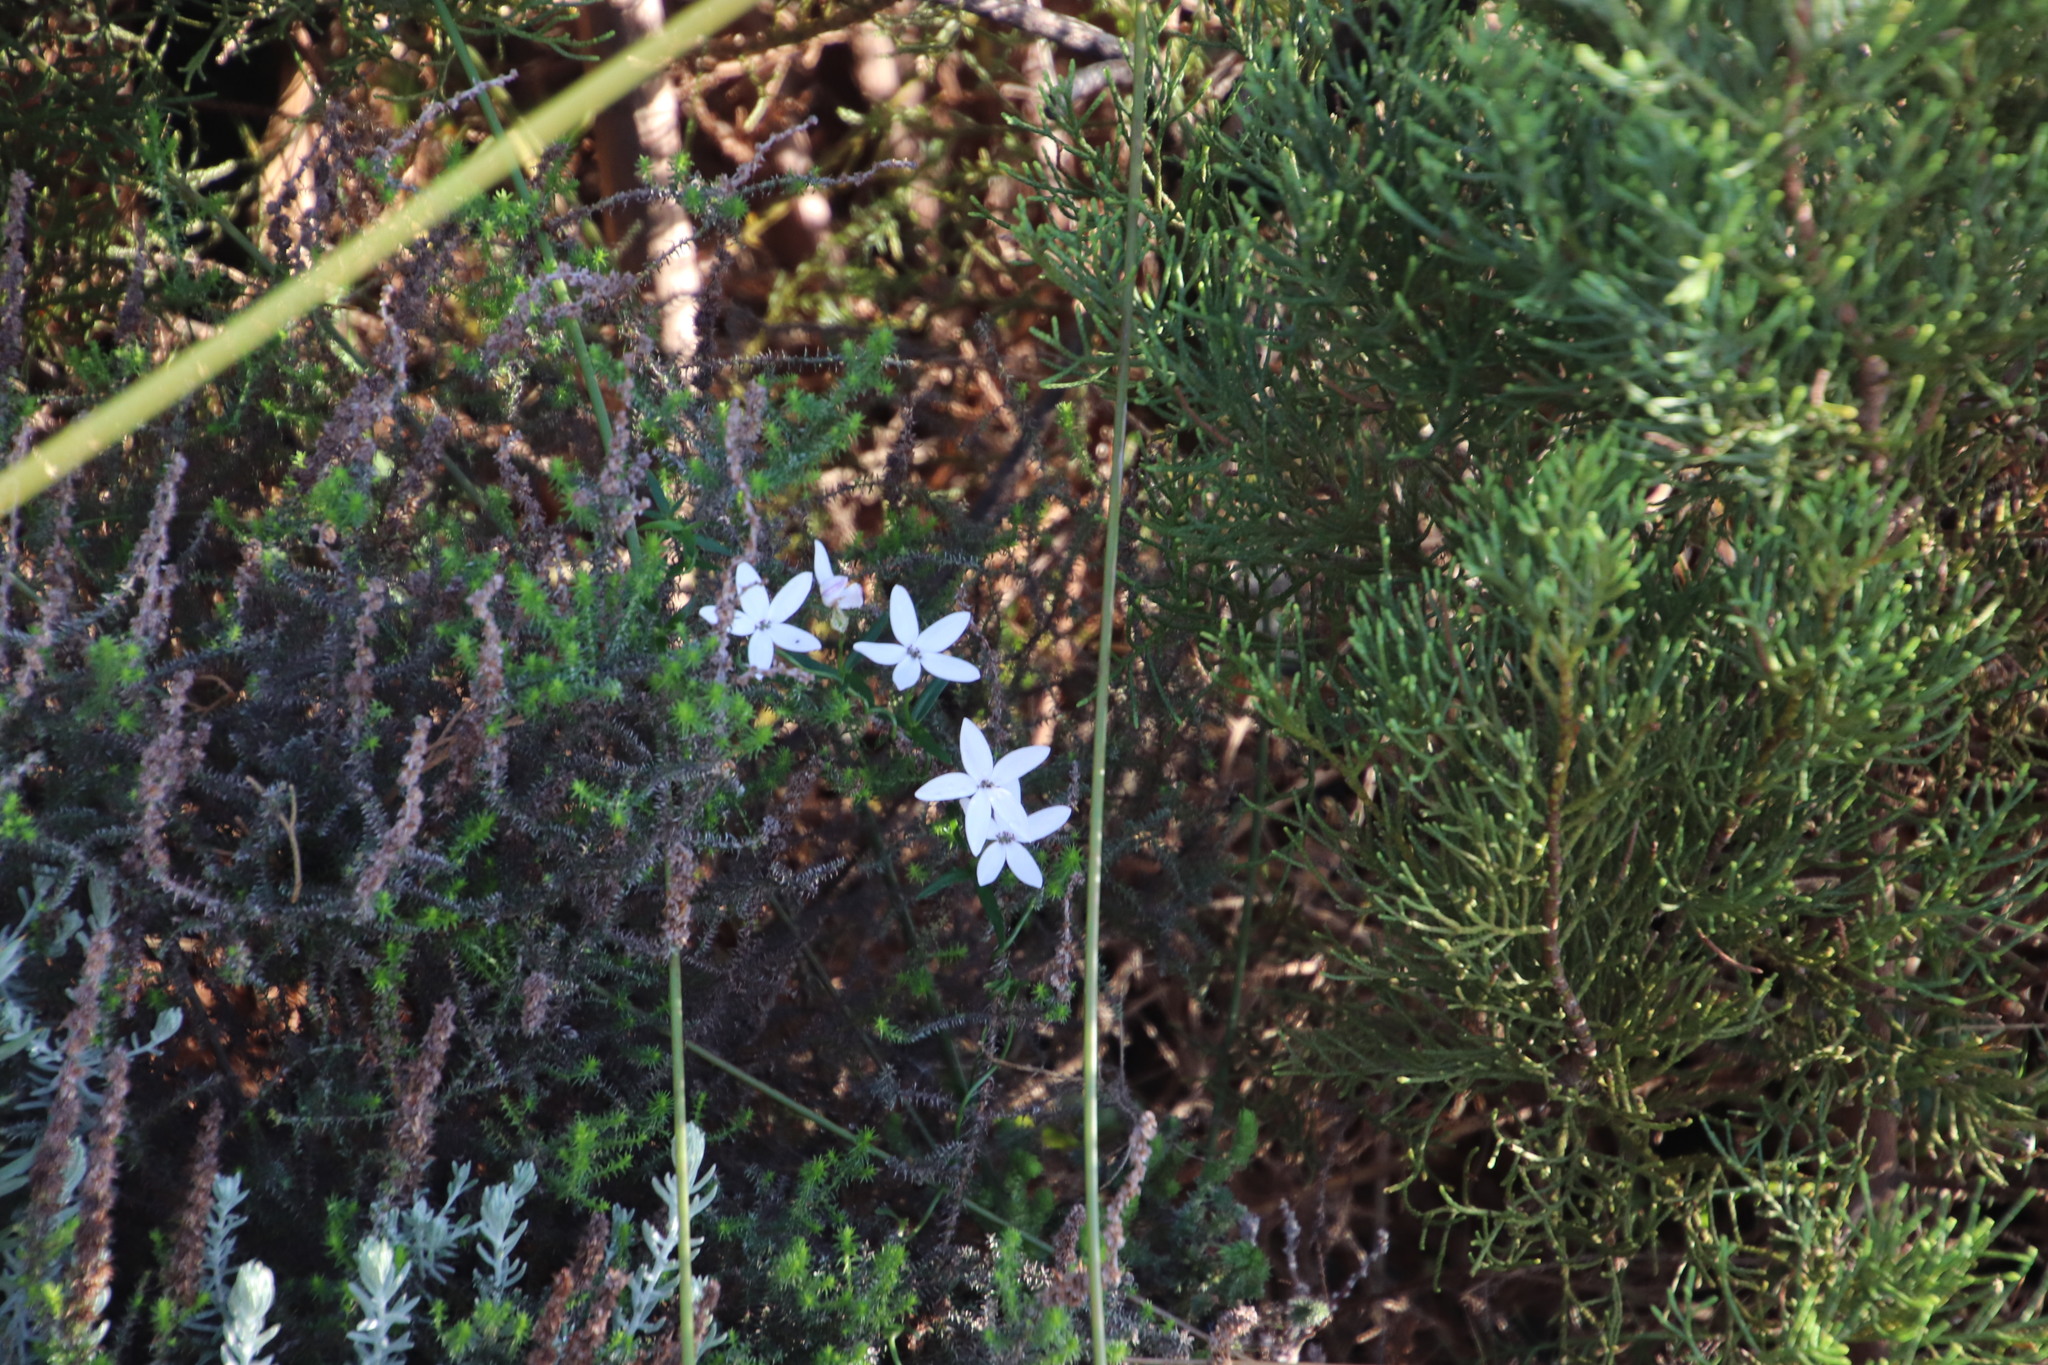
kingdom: Plantae
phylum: Tracheophyta
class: Magnoliopsida
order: Asterales
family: Campanulaceae
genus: Cyphia
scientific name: Cyphia volubilis
